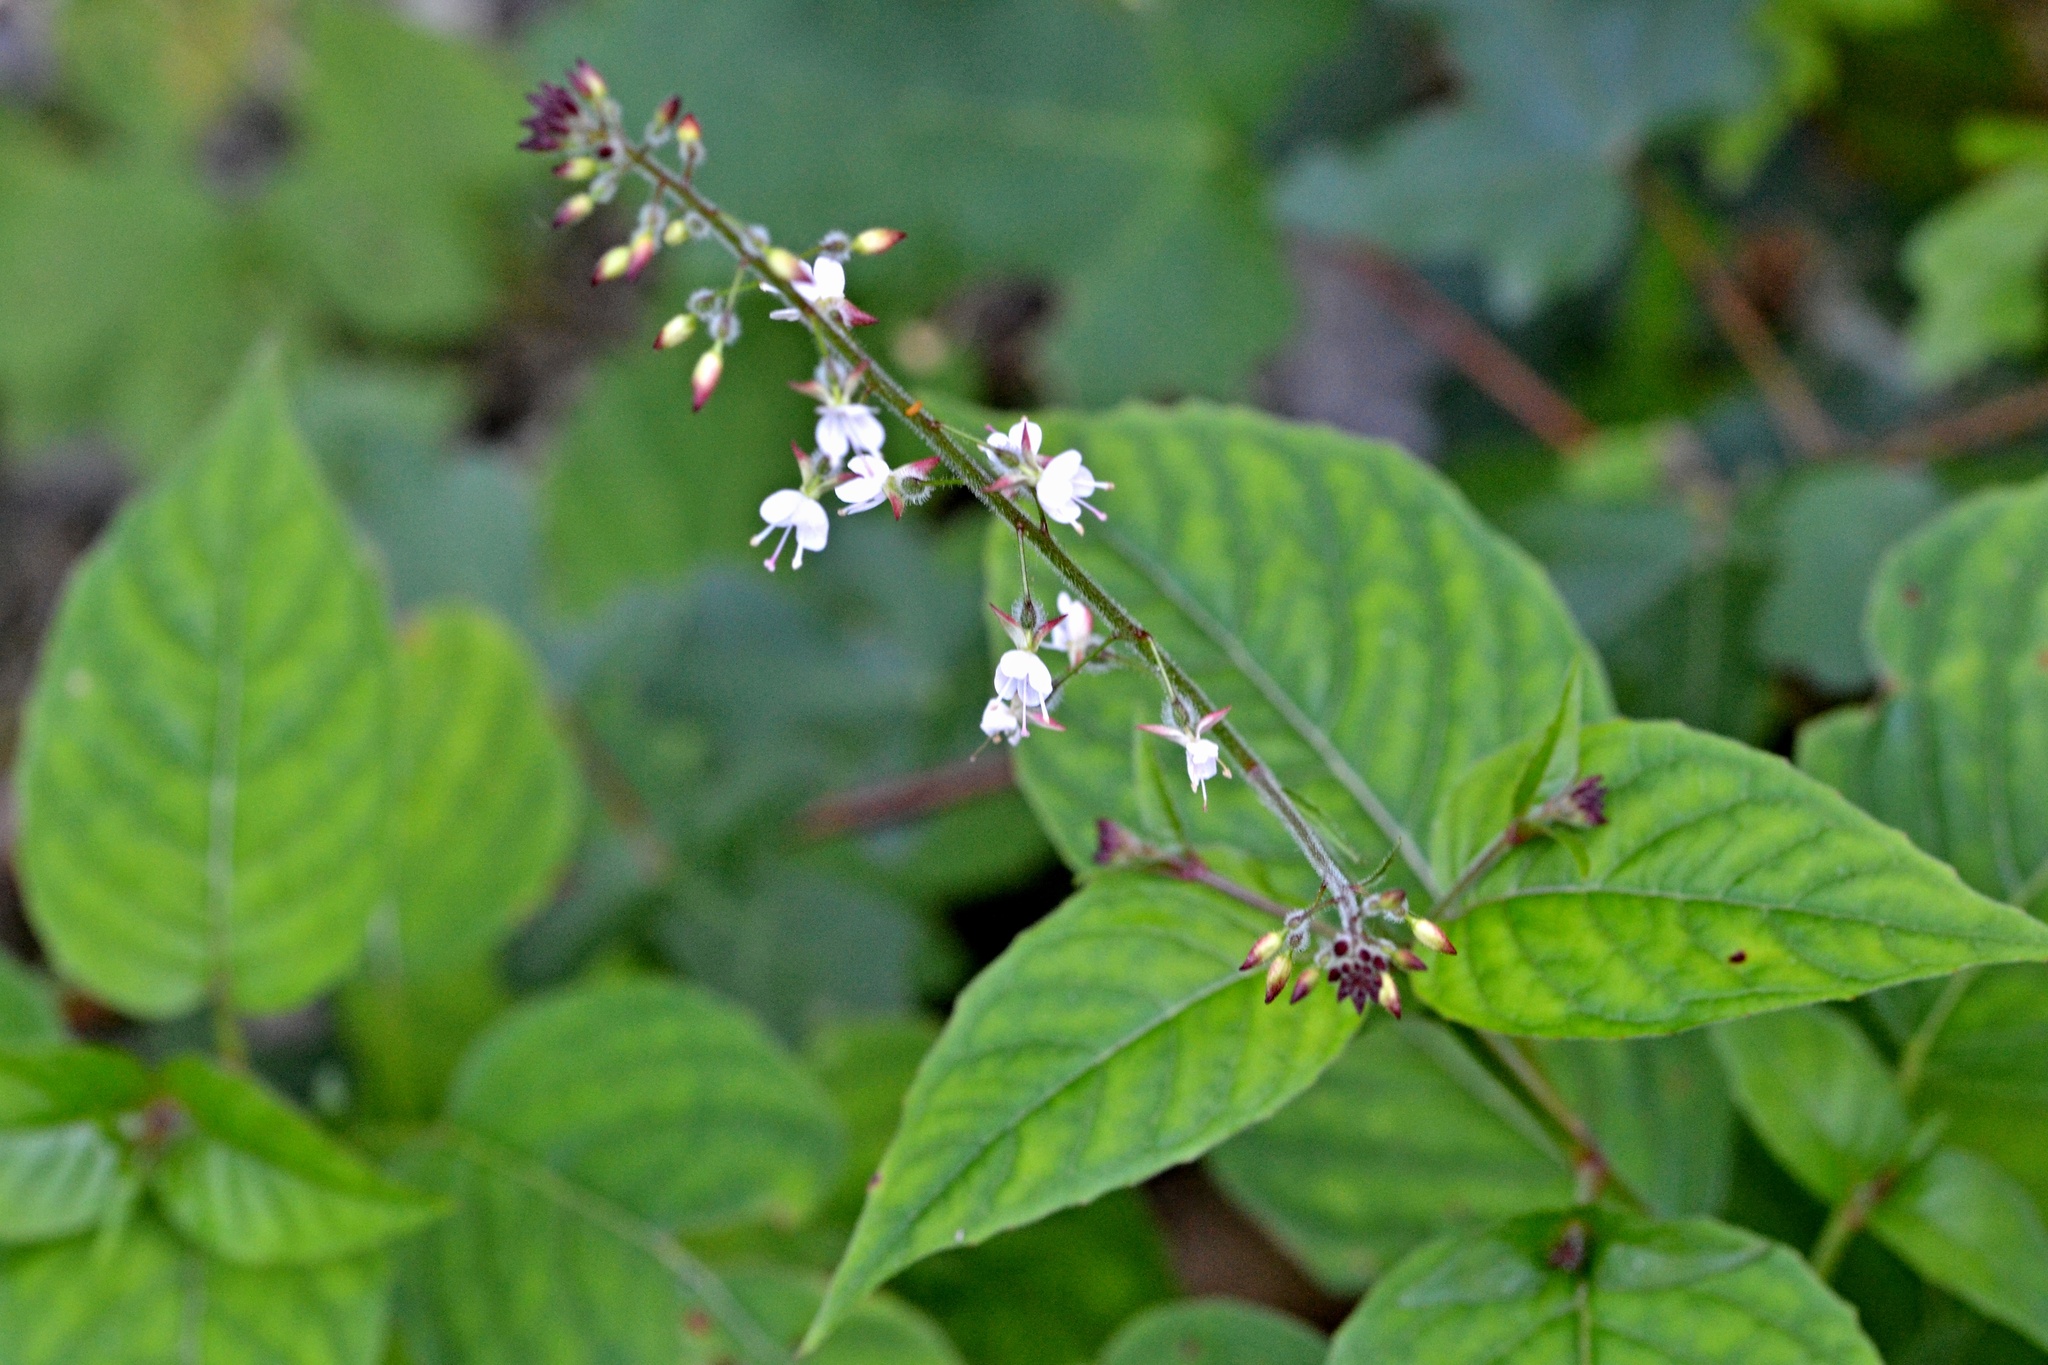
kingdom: Plantae
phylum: Tracheophyta
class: Magnoliopsida
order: Myrtales
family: Onagraceae
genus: Circaea
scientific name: Circaea lutetiana
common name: Enchanter's-nightshade
